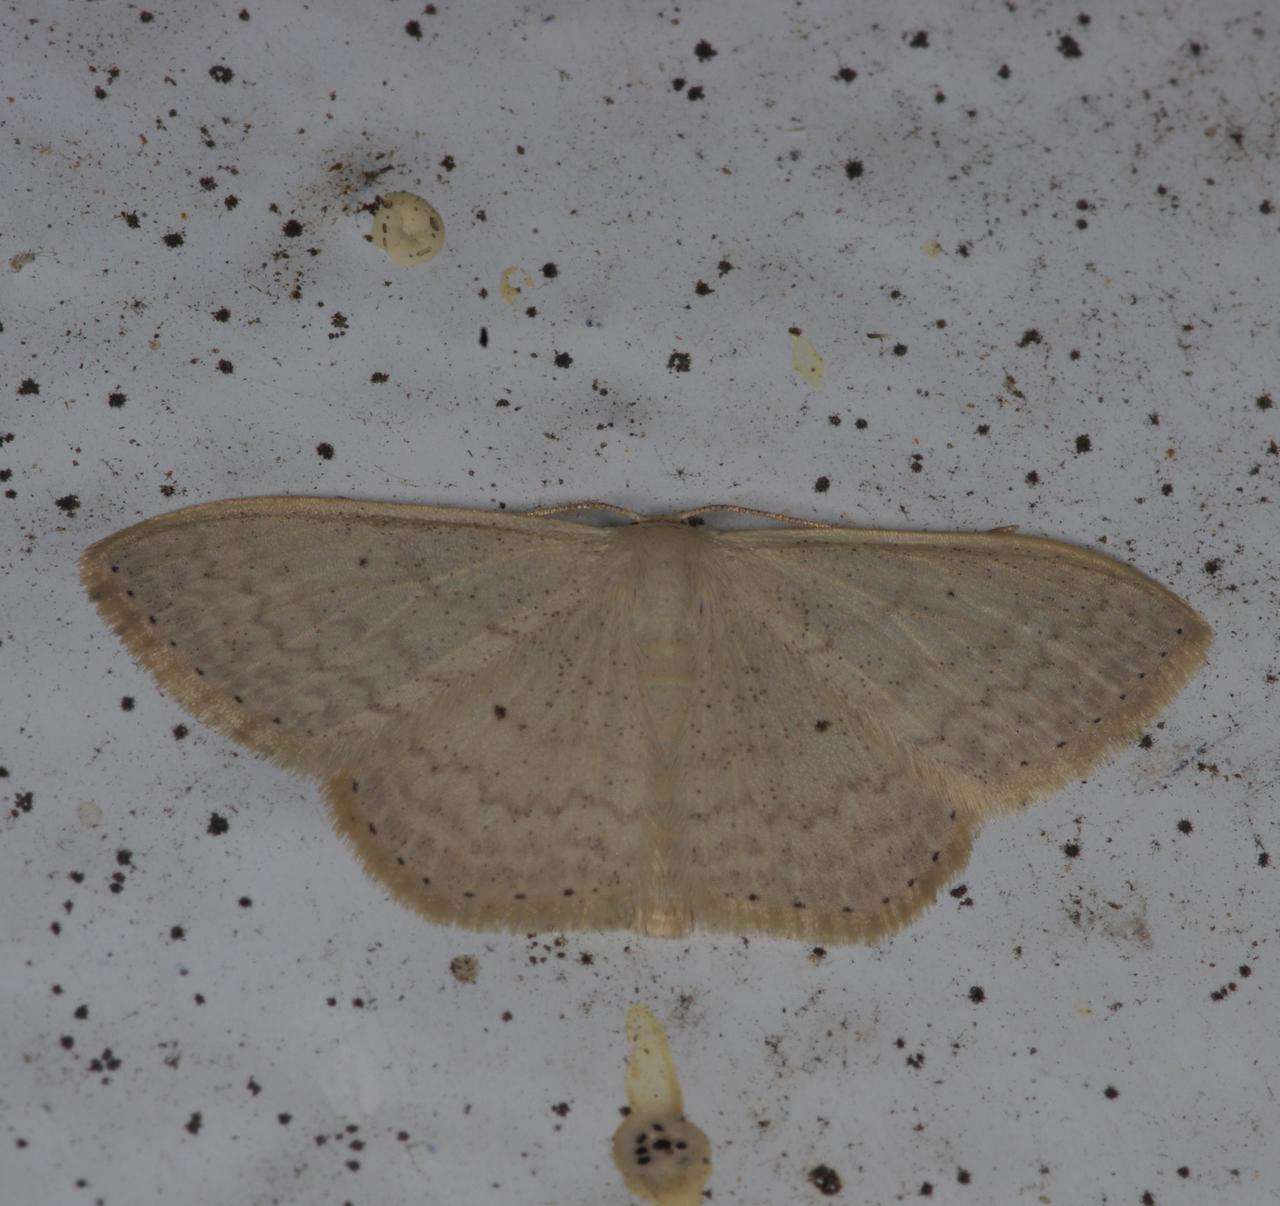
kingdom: Animalia
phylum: Arthropoda
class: Insecta
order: Lepidoptera
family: Geometridae
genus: Scopula
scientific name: Scopula optivata
